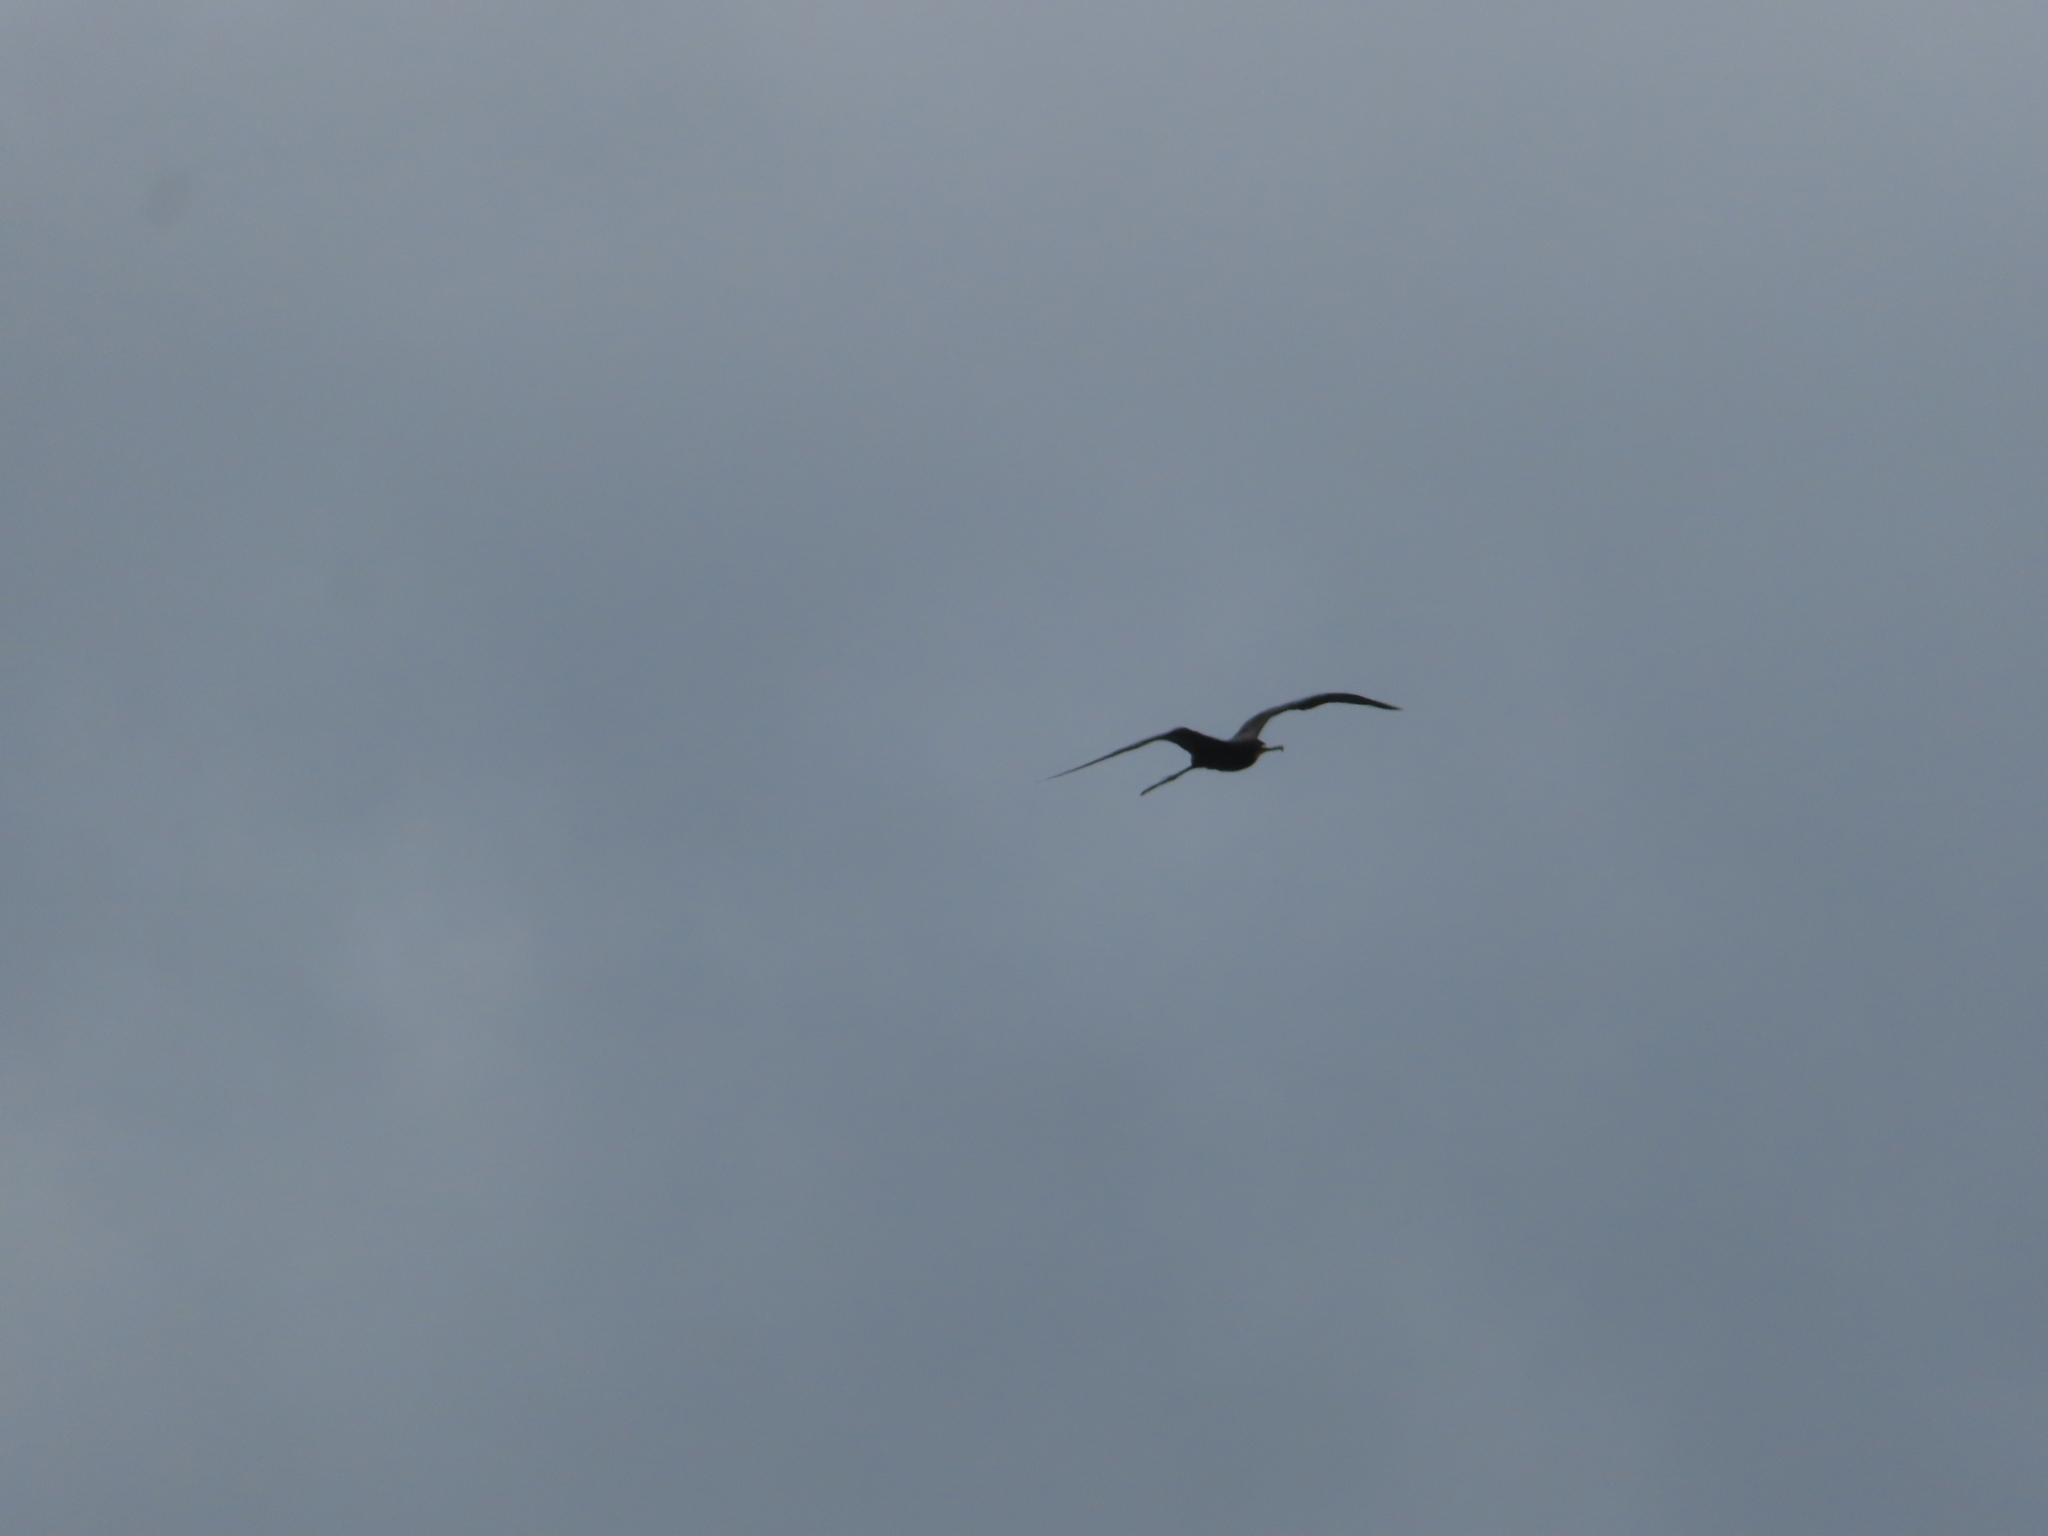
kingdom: Animalia
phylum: Chordata
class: Aves
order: Suliformes
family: Fregatidae
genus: Fregata
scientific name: Fregata magnificens
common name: Magnificent frigatebird
